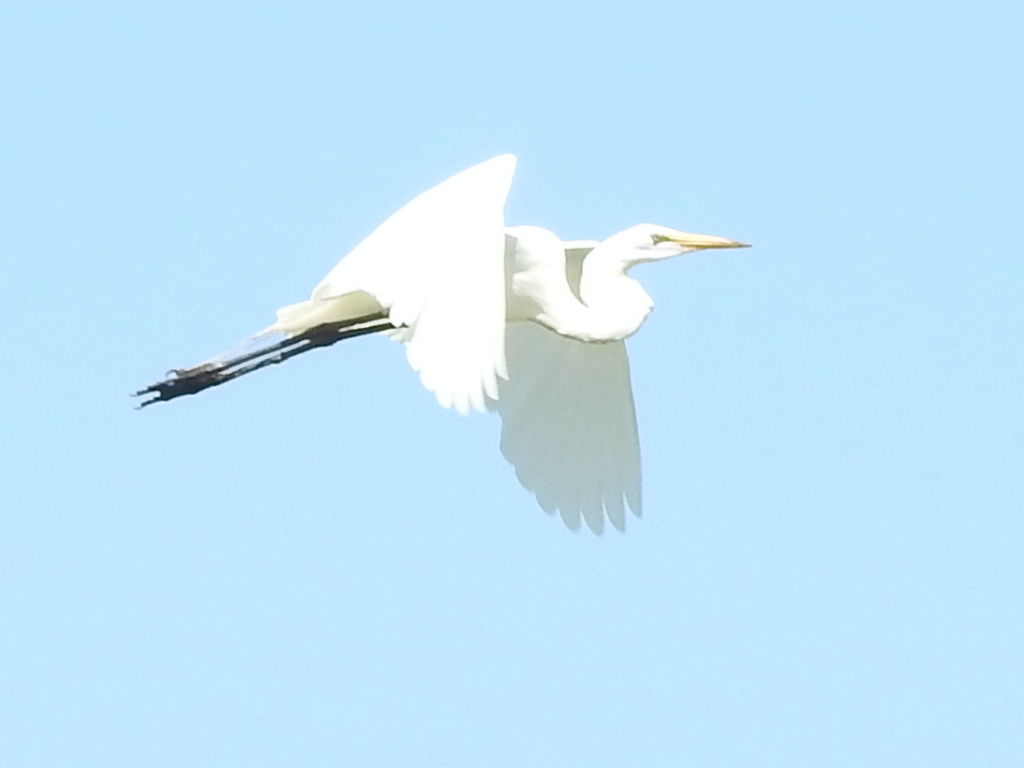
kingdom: Animalia
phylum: Chordata
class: Aves
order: Pelecaniformes
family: Ardeidae
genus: Ardea
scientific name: Ardea alba
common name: Great egret
